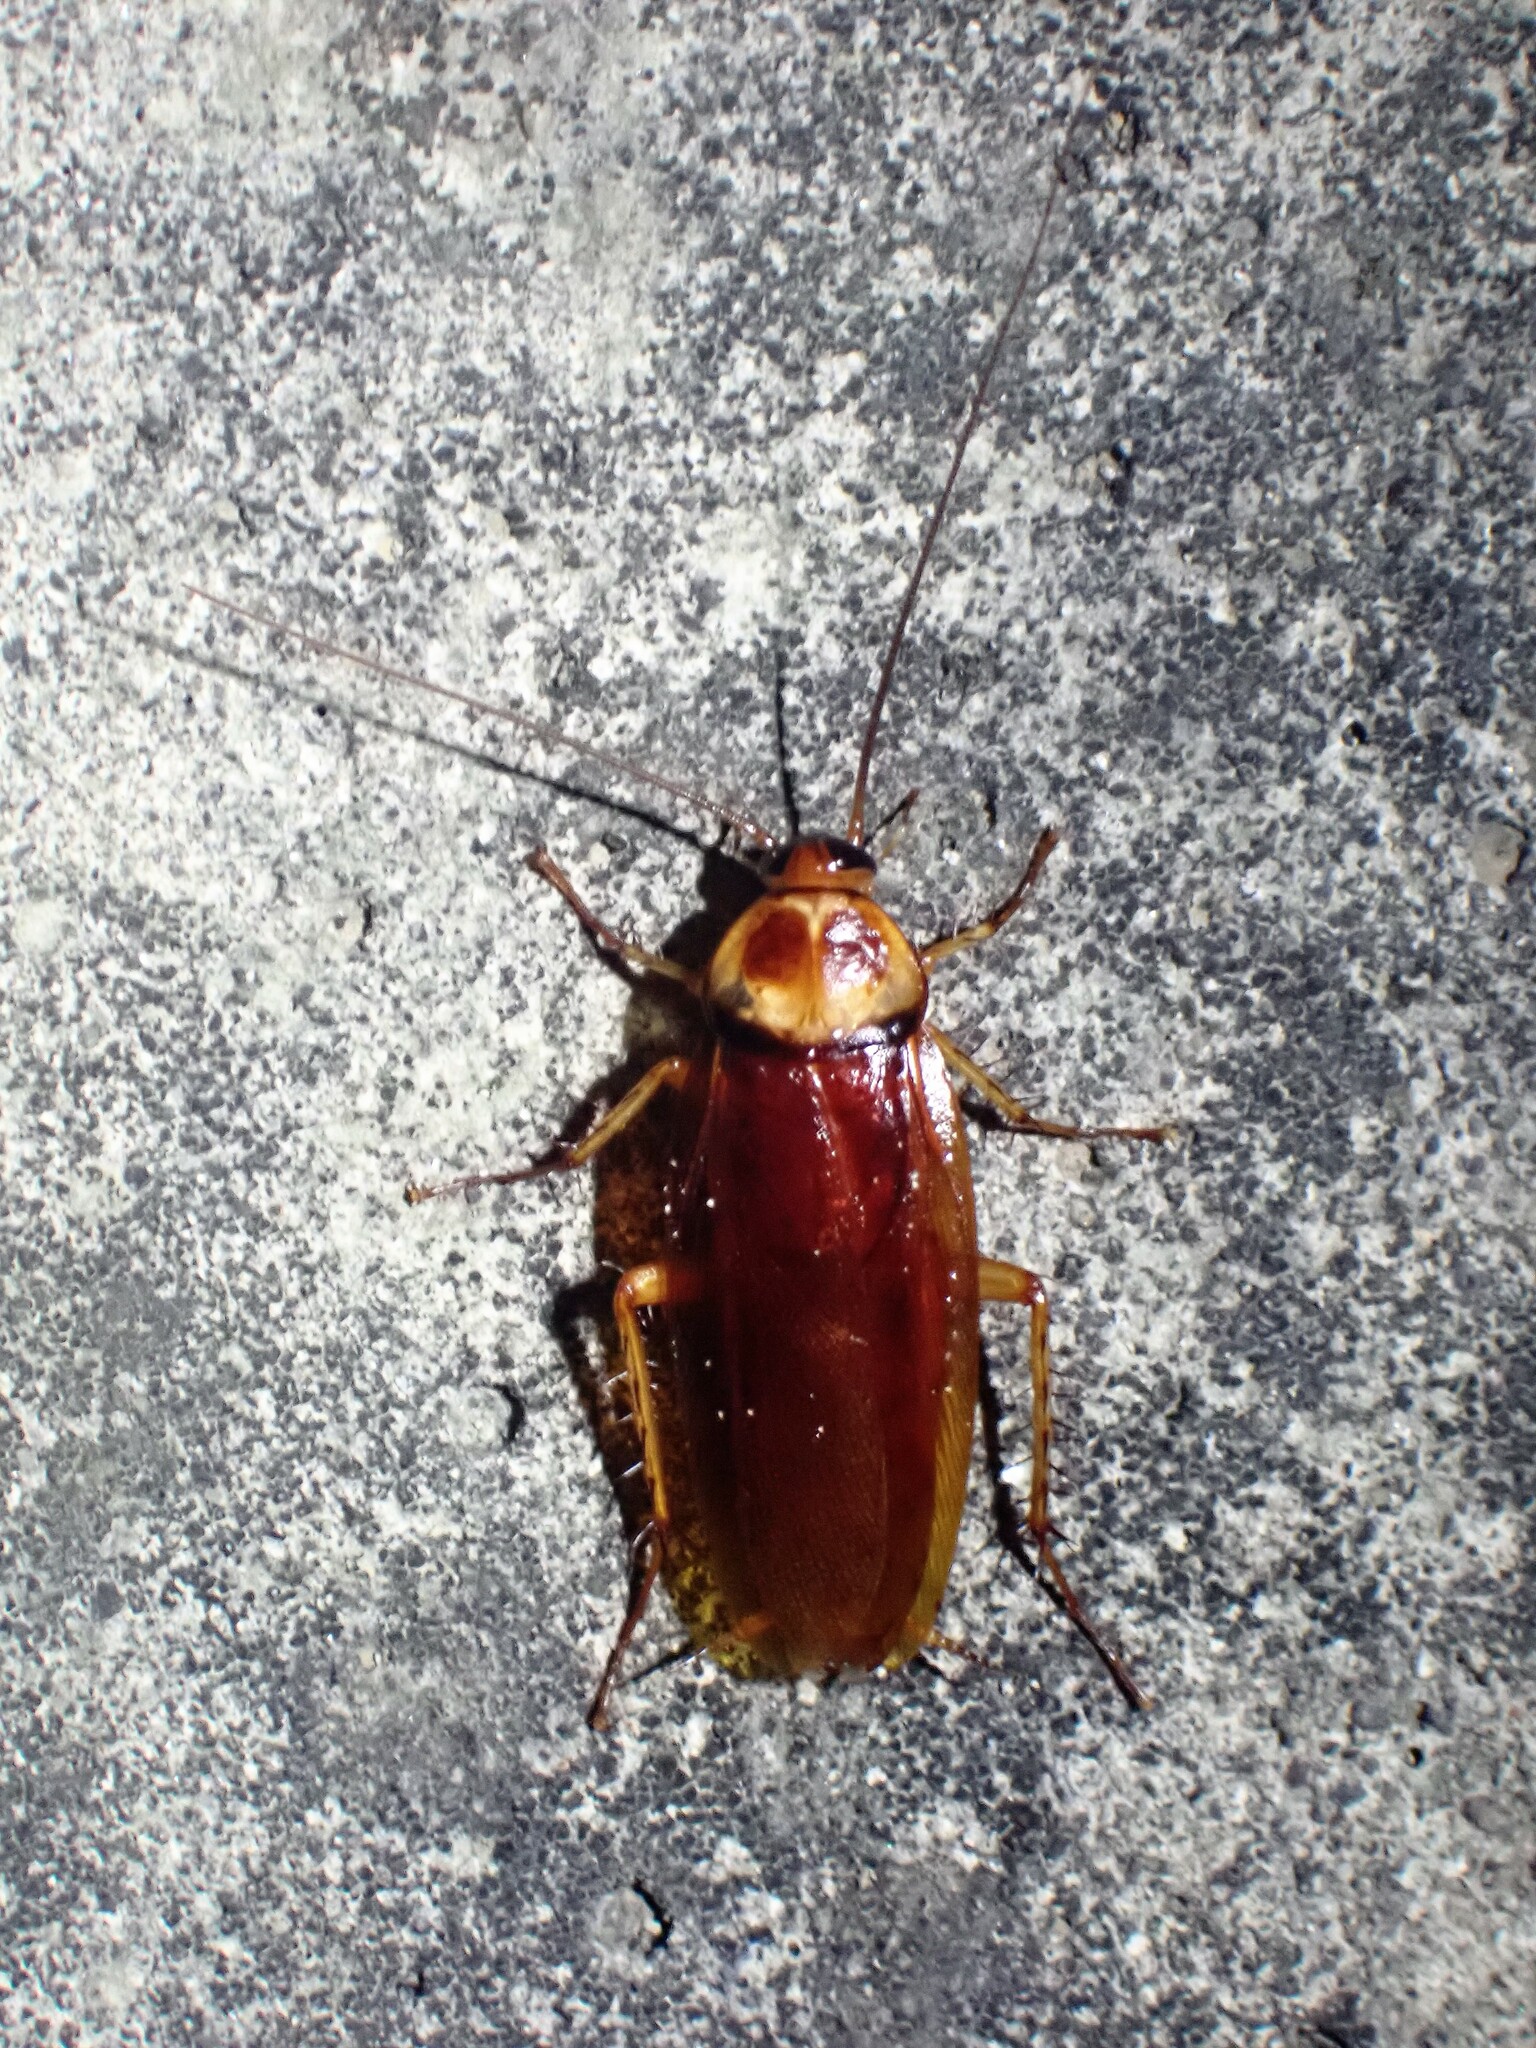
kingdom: Animalia
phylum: Arthropoda
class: Insecta
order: Blattodea
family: Blattidae
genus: Periplaneta
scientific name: Periplaneta americana
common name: American cockroach
